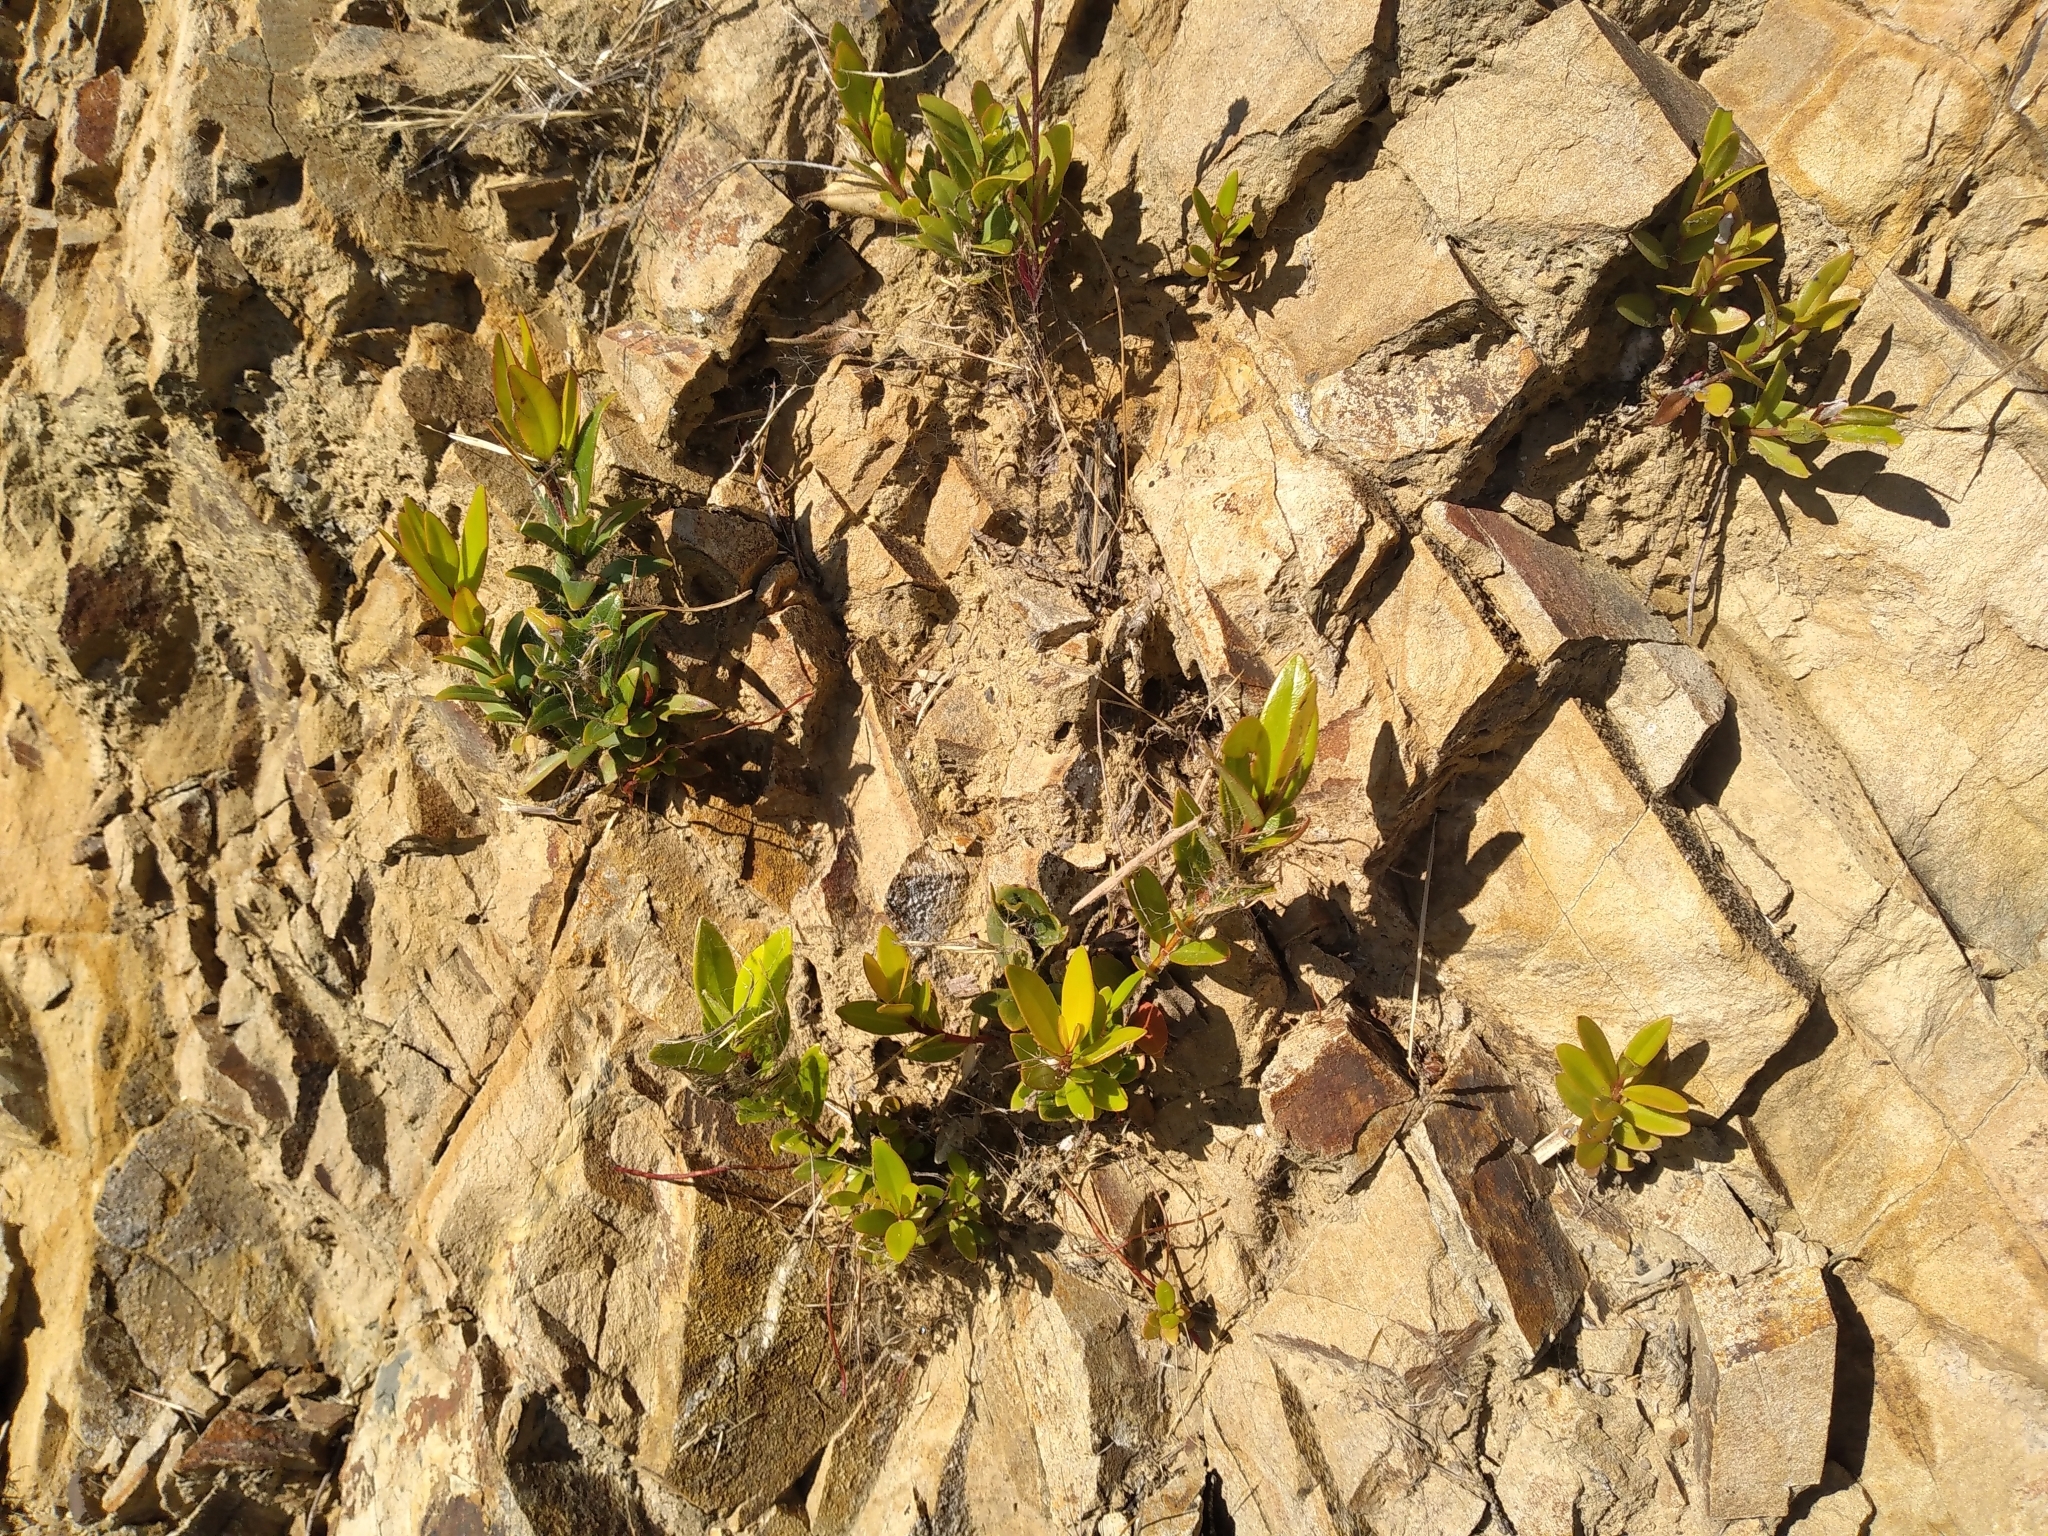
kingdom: Plantae
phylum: Tracheophyta
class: Magnoliopsida
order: Myrtales
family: Myrtaceae
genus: Metrosideros
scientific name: Metrosideros excelsa
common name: New zealand christmastree
